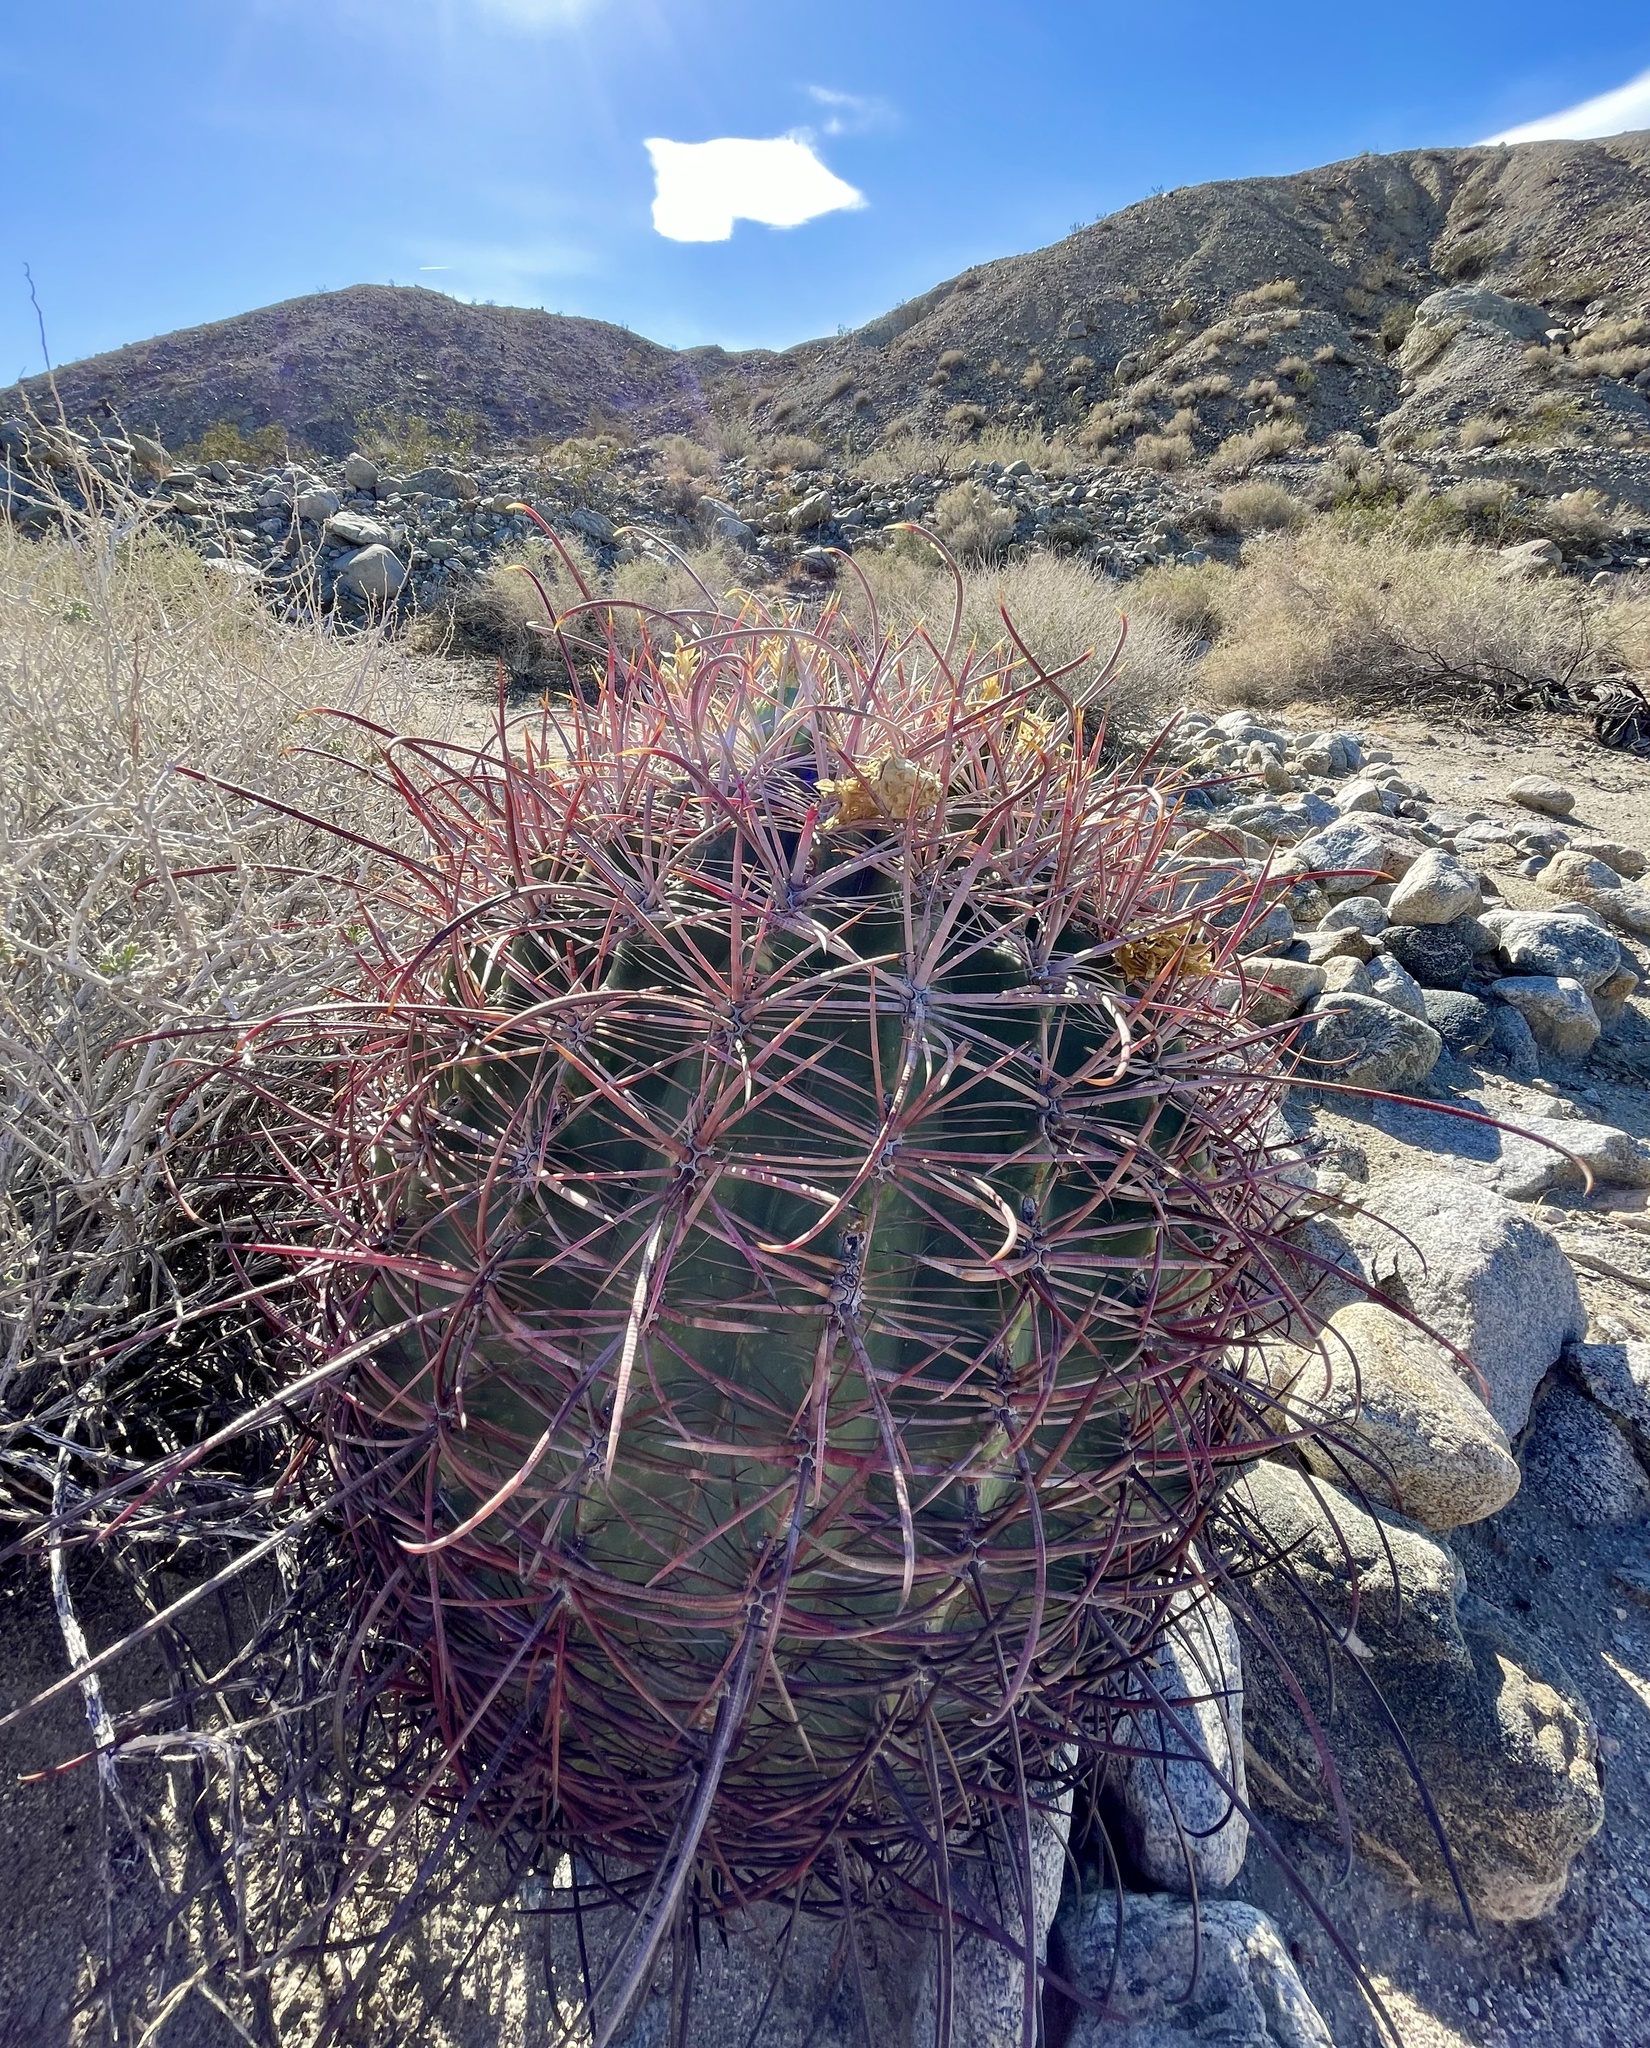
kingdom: Plantae
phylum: Tracheophyta
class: Magnoliopsida
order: Caryophyllales
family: Cactaceae
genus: Ferocactus
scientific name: Ferocactus cylindraceus
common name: California barrel cactus
